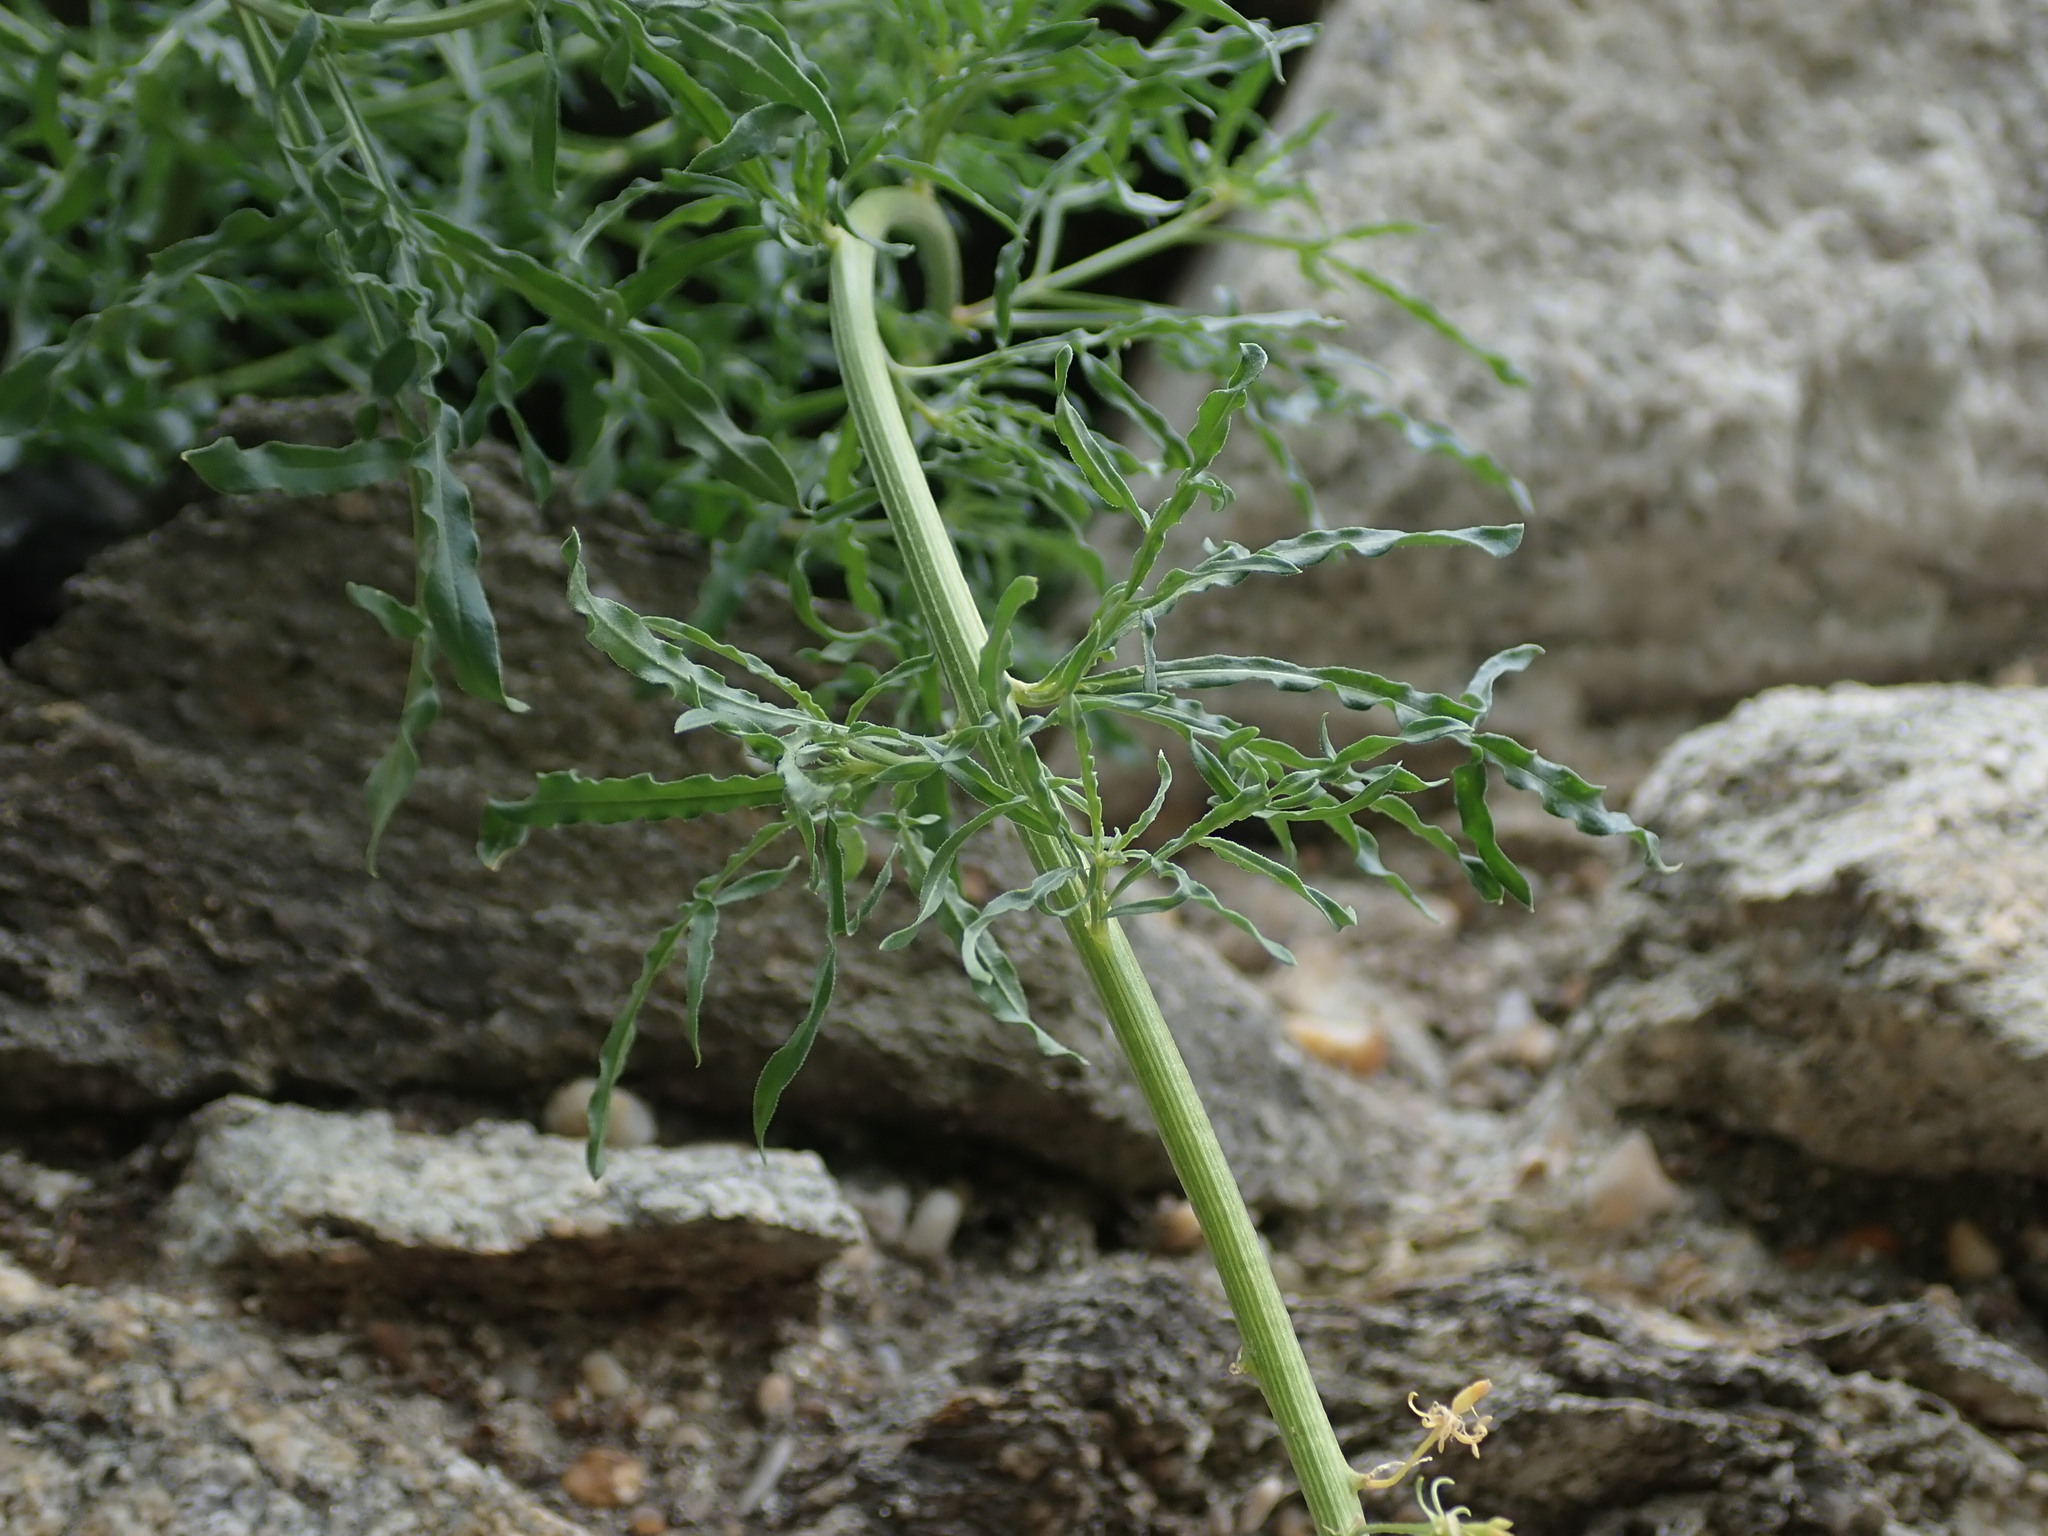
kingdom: Plantae
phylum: Tracheophyta
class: Magnoliopsida
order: Brassicales
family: Resedaceae
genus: Reseda
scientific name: Reseda lutea
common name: Wild mignonette
